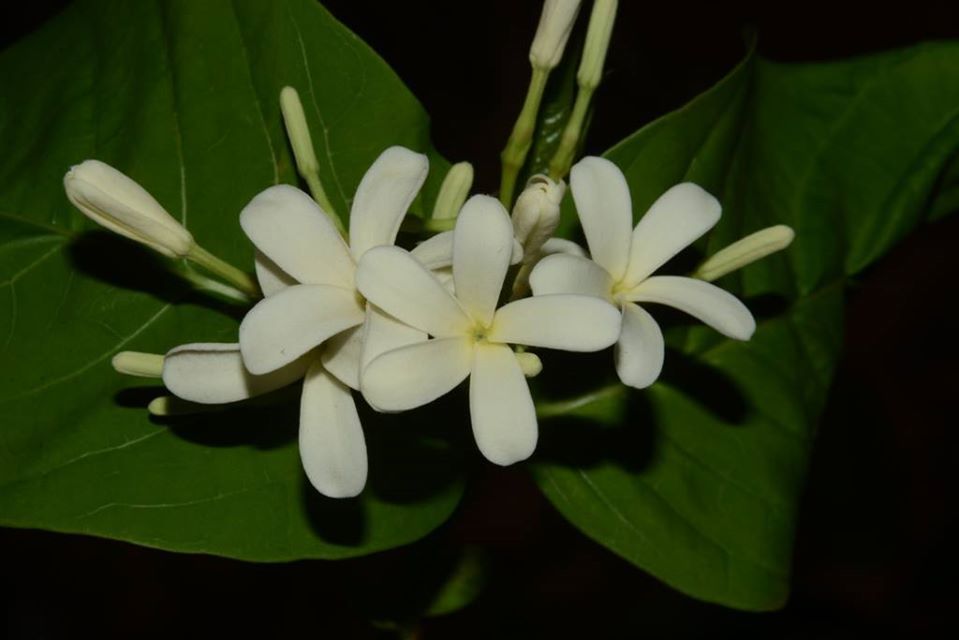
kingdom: Plantae
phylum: Tracheophyta
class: Magnoliopsida
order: Gentianales
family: Apocynaceae
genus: Holarrhena
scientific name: Holarrhena pubescens
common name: Bitter oleander
